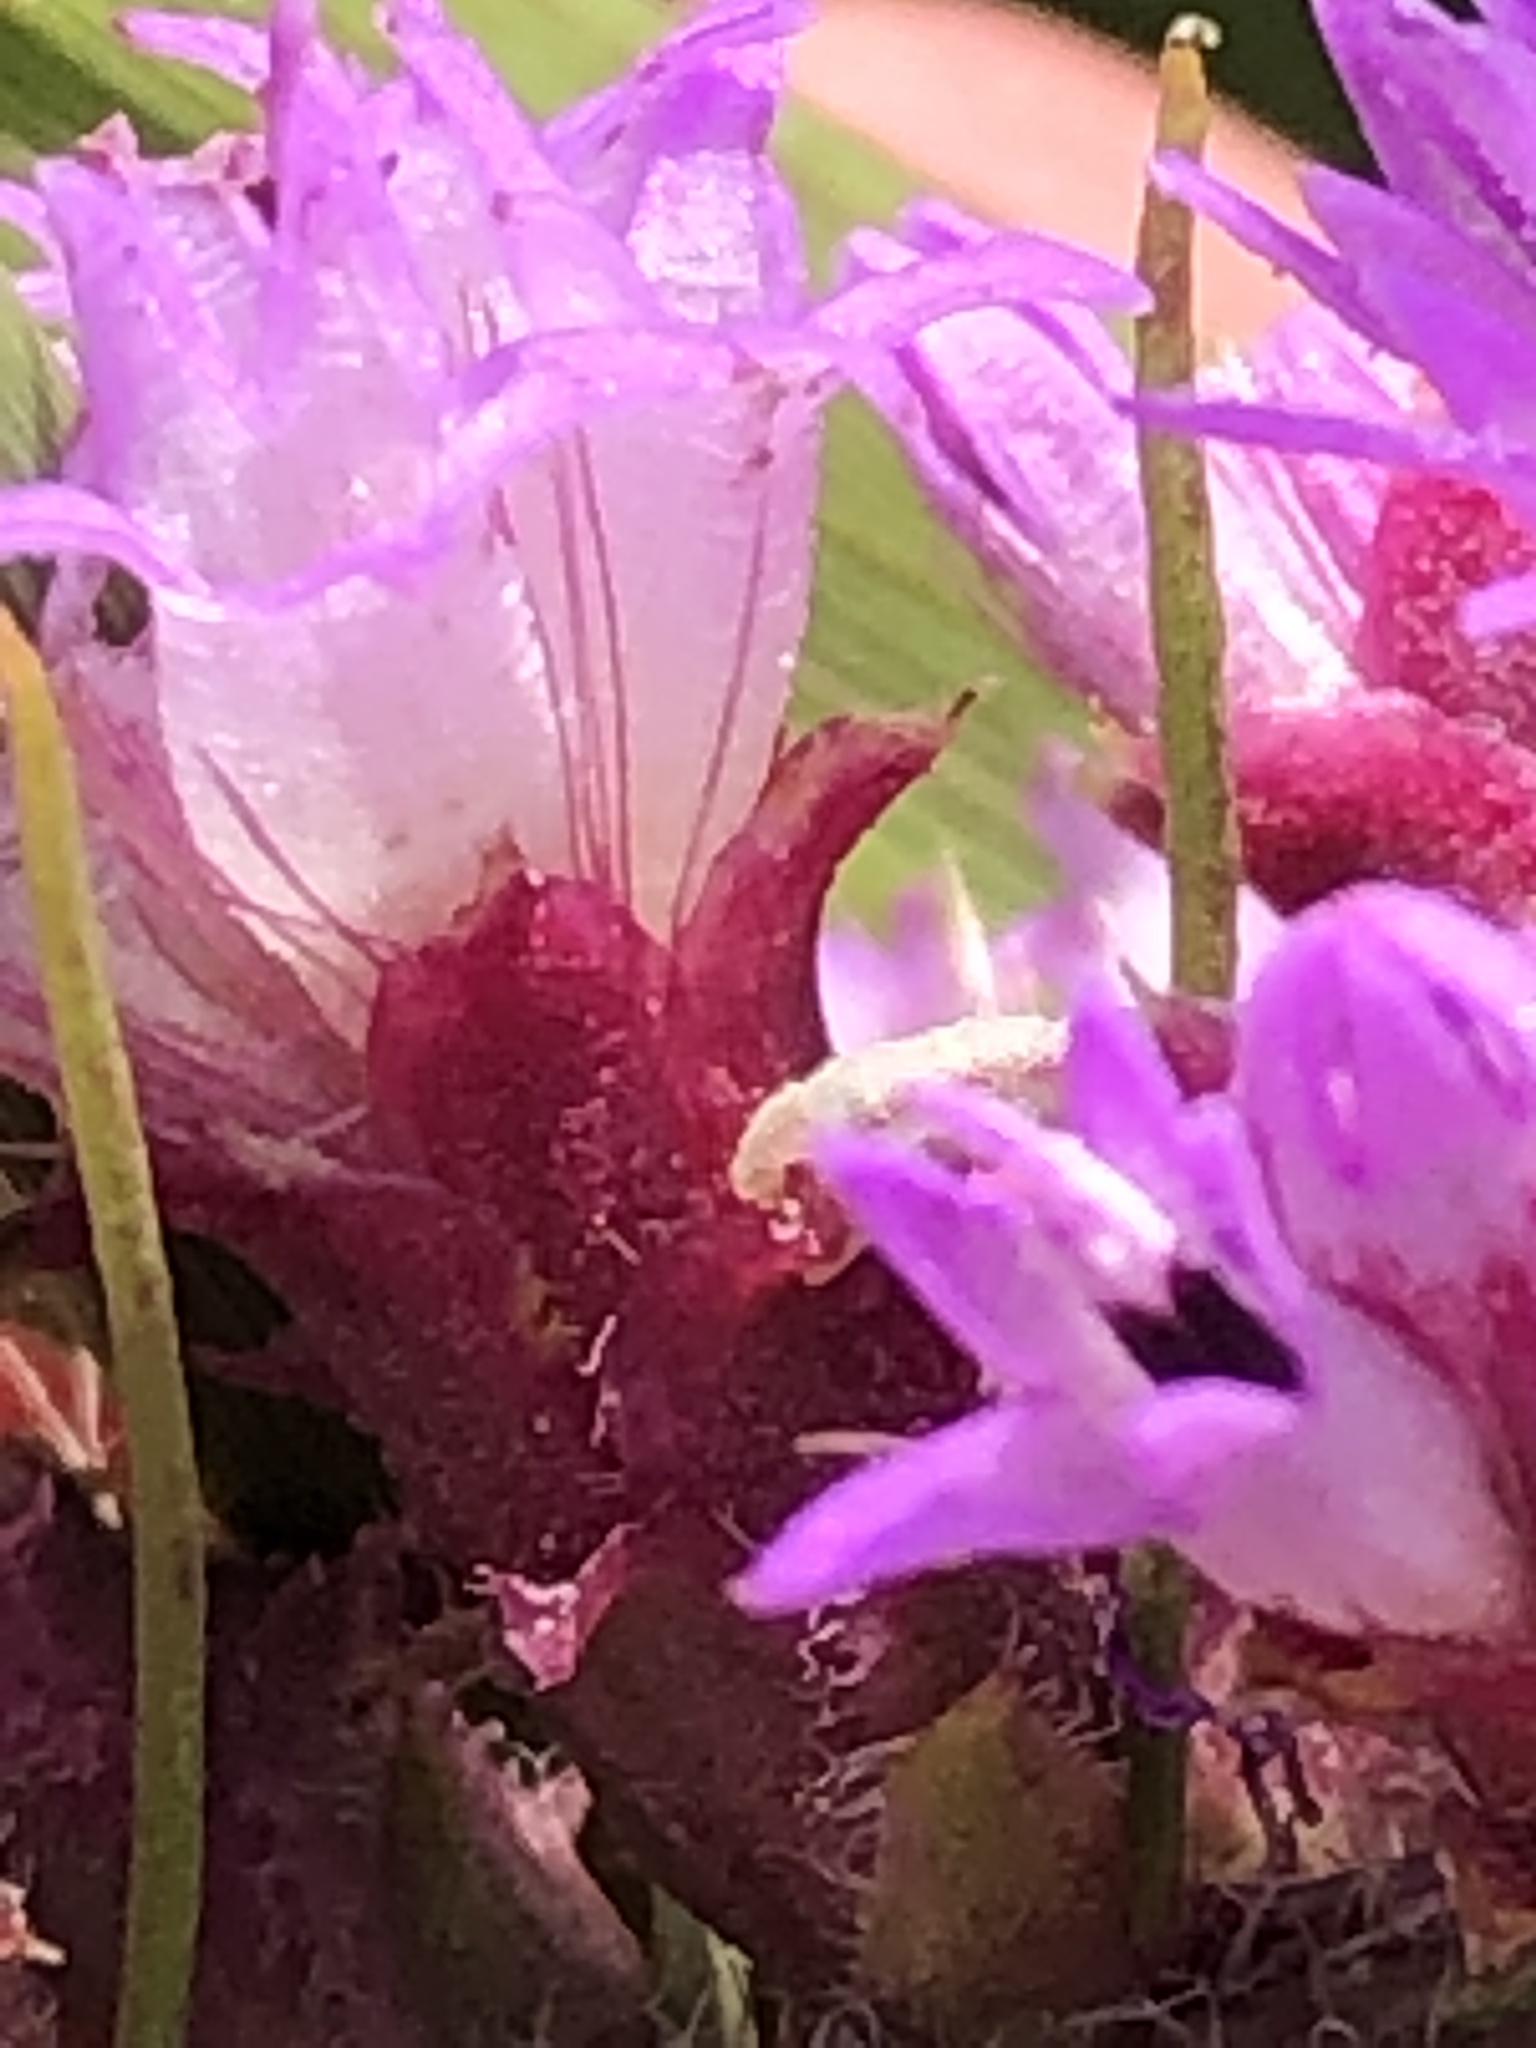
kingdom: Plantae
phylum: Tracheophyta
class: Magnoliopsida
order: Asterales
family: Asteraceae
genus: Liatris
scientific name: Liatris pycnostachya
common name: Cattail gayfeather
